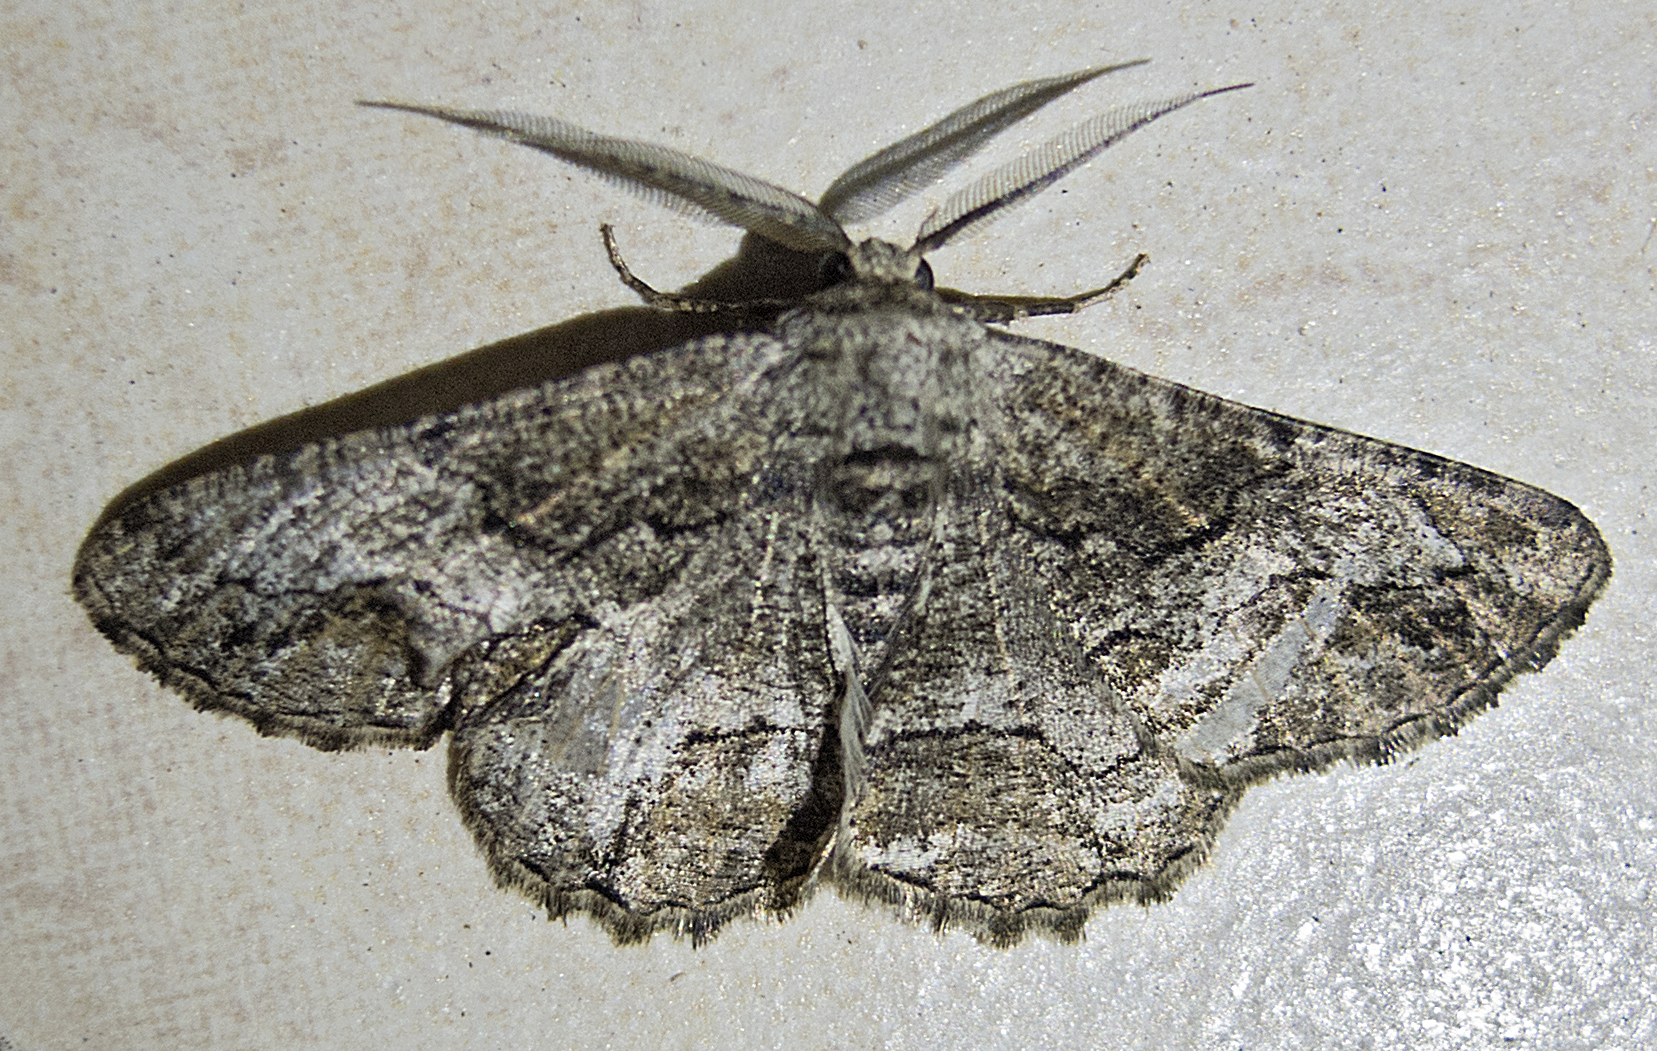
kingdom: Animalia
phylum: Arthropoda
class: Insecta
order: Lepidoptera
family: Geometridae
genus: Synopsia
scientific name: Synopsia sociaria
